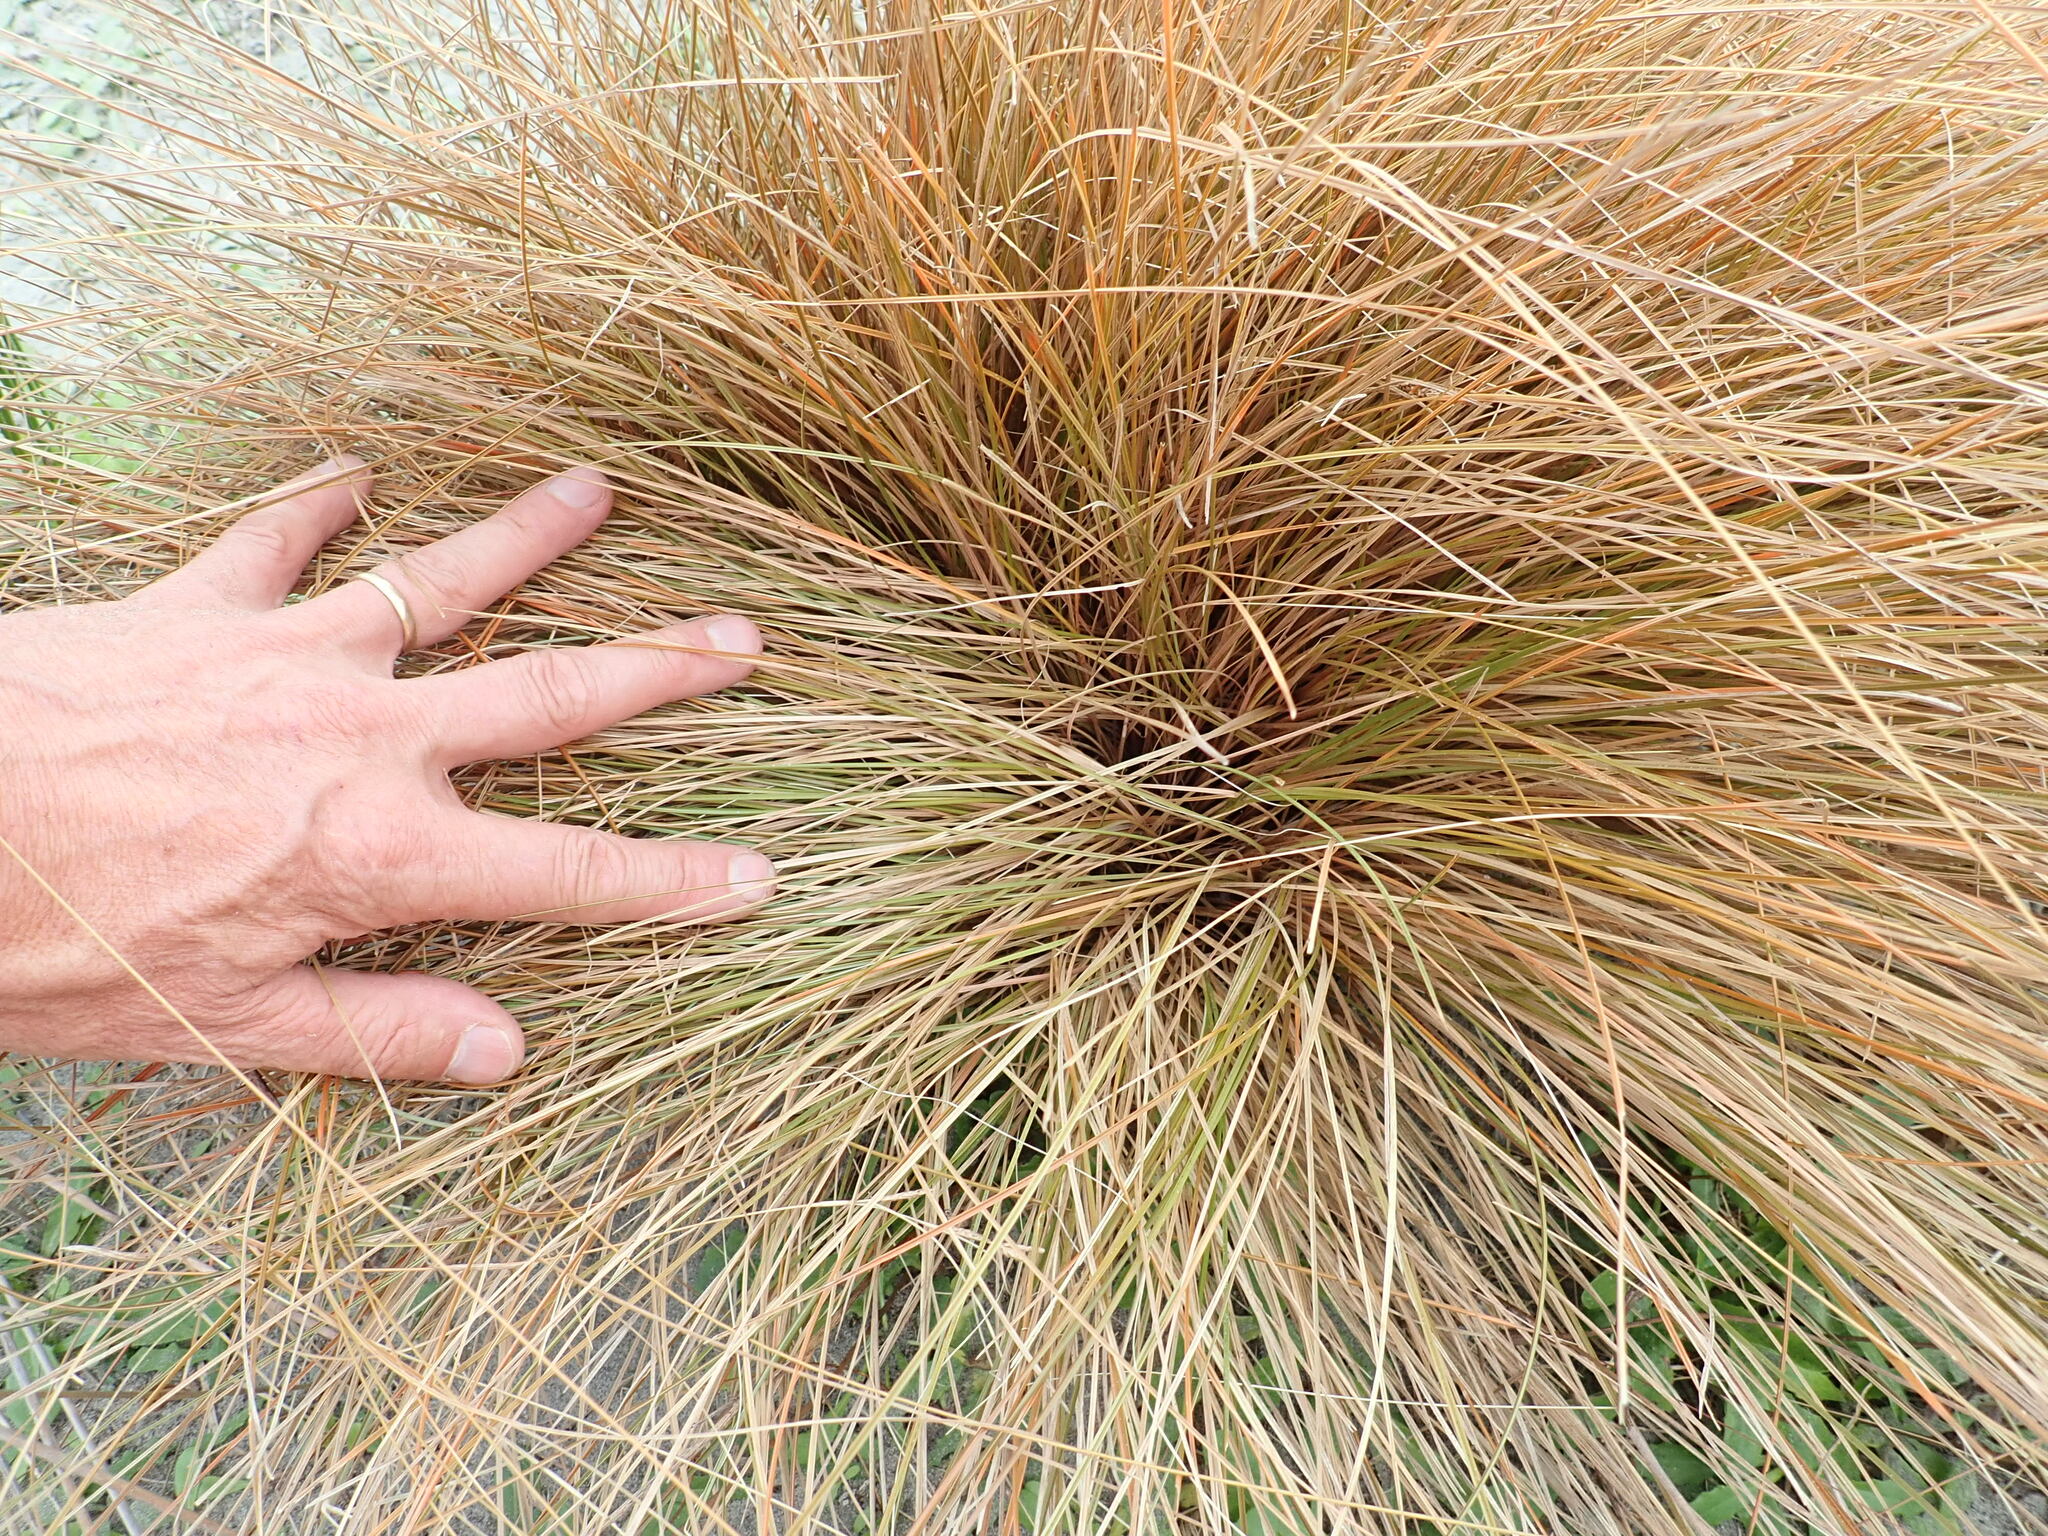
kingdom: Plantae
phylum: Tracheophyta
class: Liliopsida
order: Poales
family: Cyperaceae
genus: Carex
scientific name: Carex testacea
